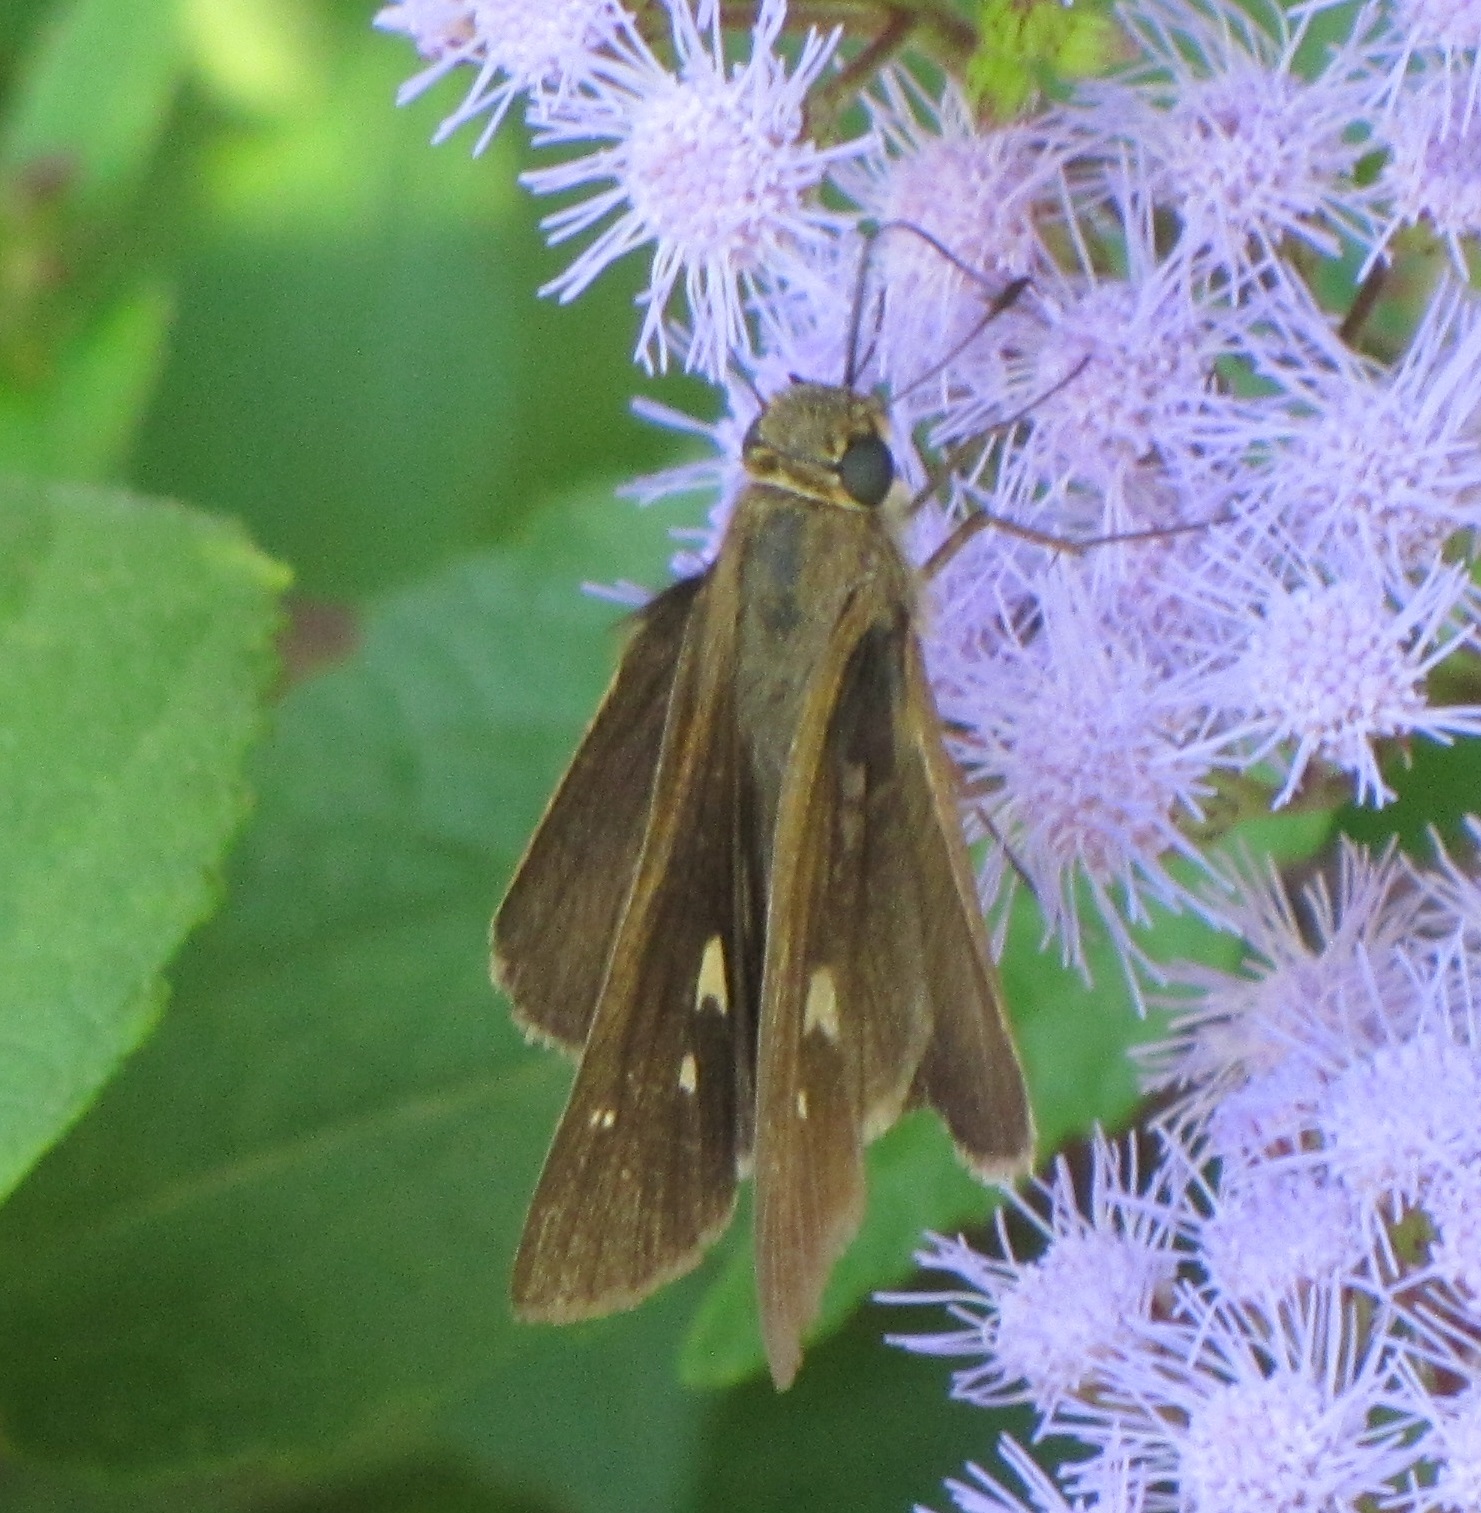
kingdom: Animalia
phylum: Arthropoda
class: Insecta
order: Lepidoptera
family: Hesperiidae
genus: Panoquina
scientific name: Panoquina ocola
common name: Ocola skipper
